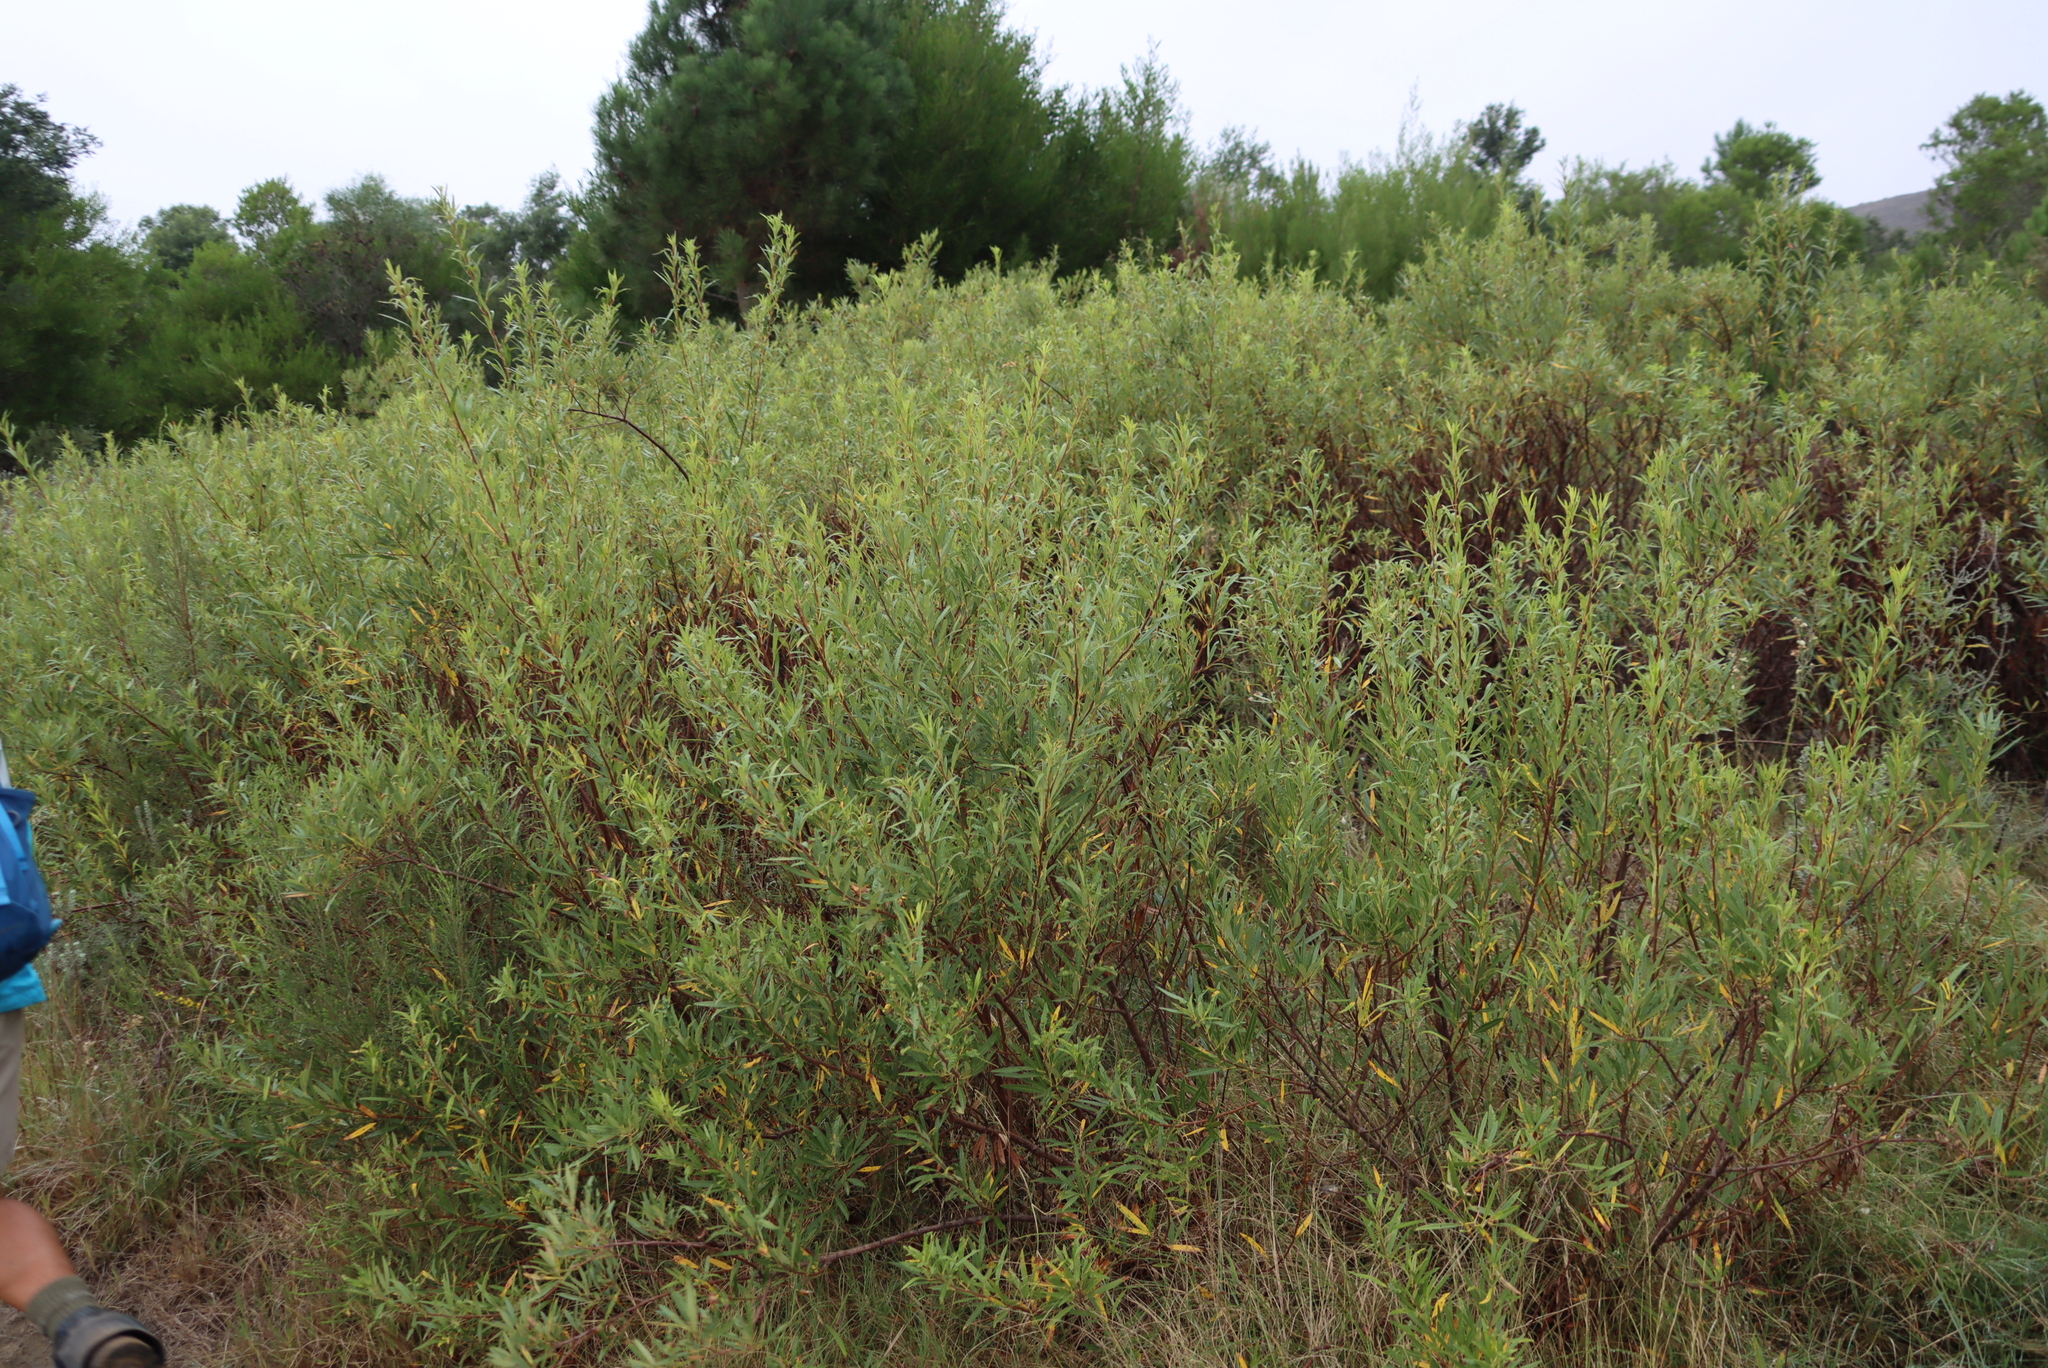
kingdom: Plantae
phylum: Tracheophyta
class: Magnoliopsida
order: Sapindales
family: Anacardiaceae
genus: Searsia
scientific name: Searsia angustifolia
